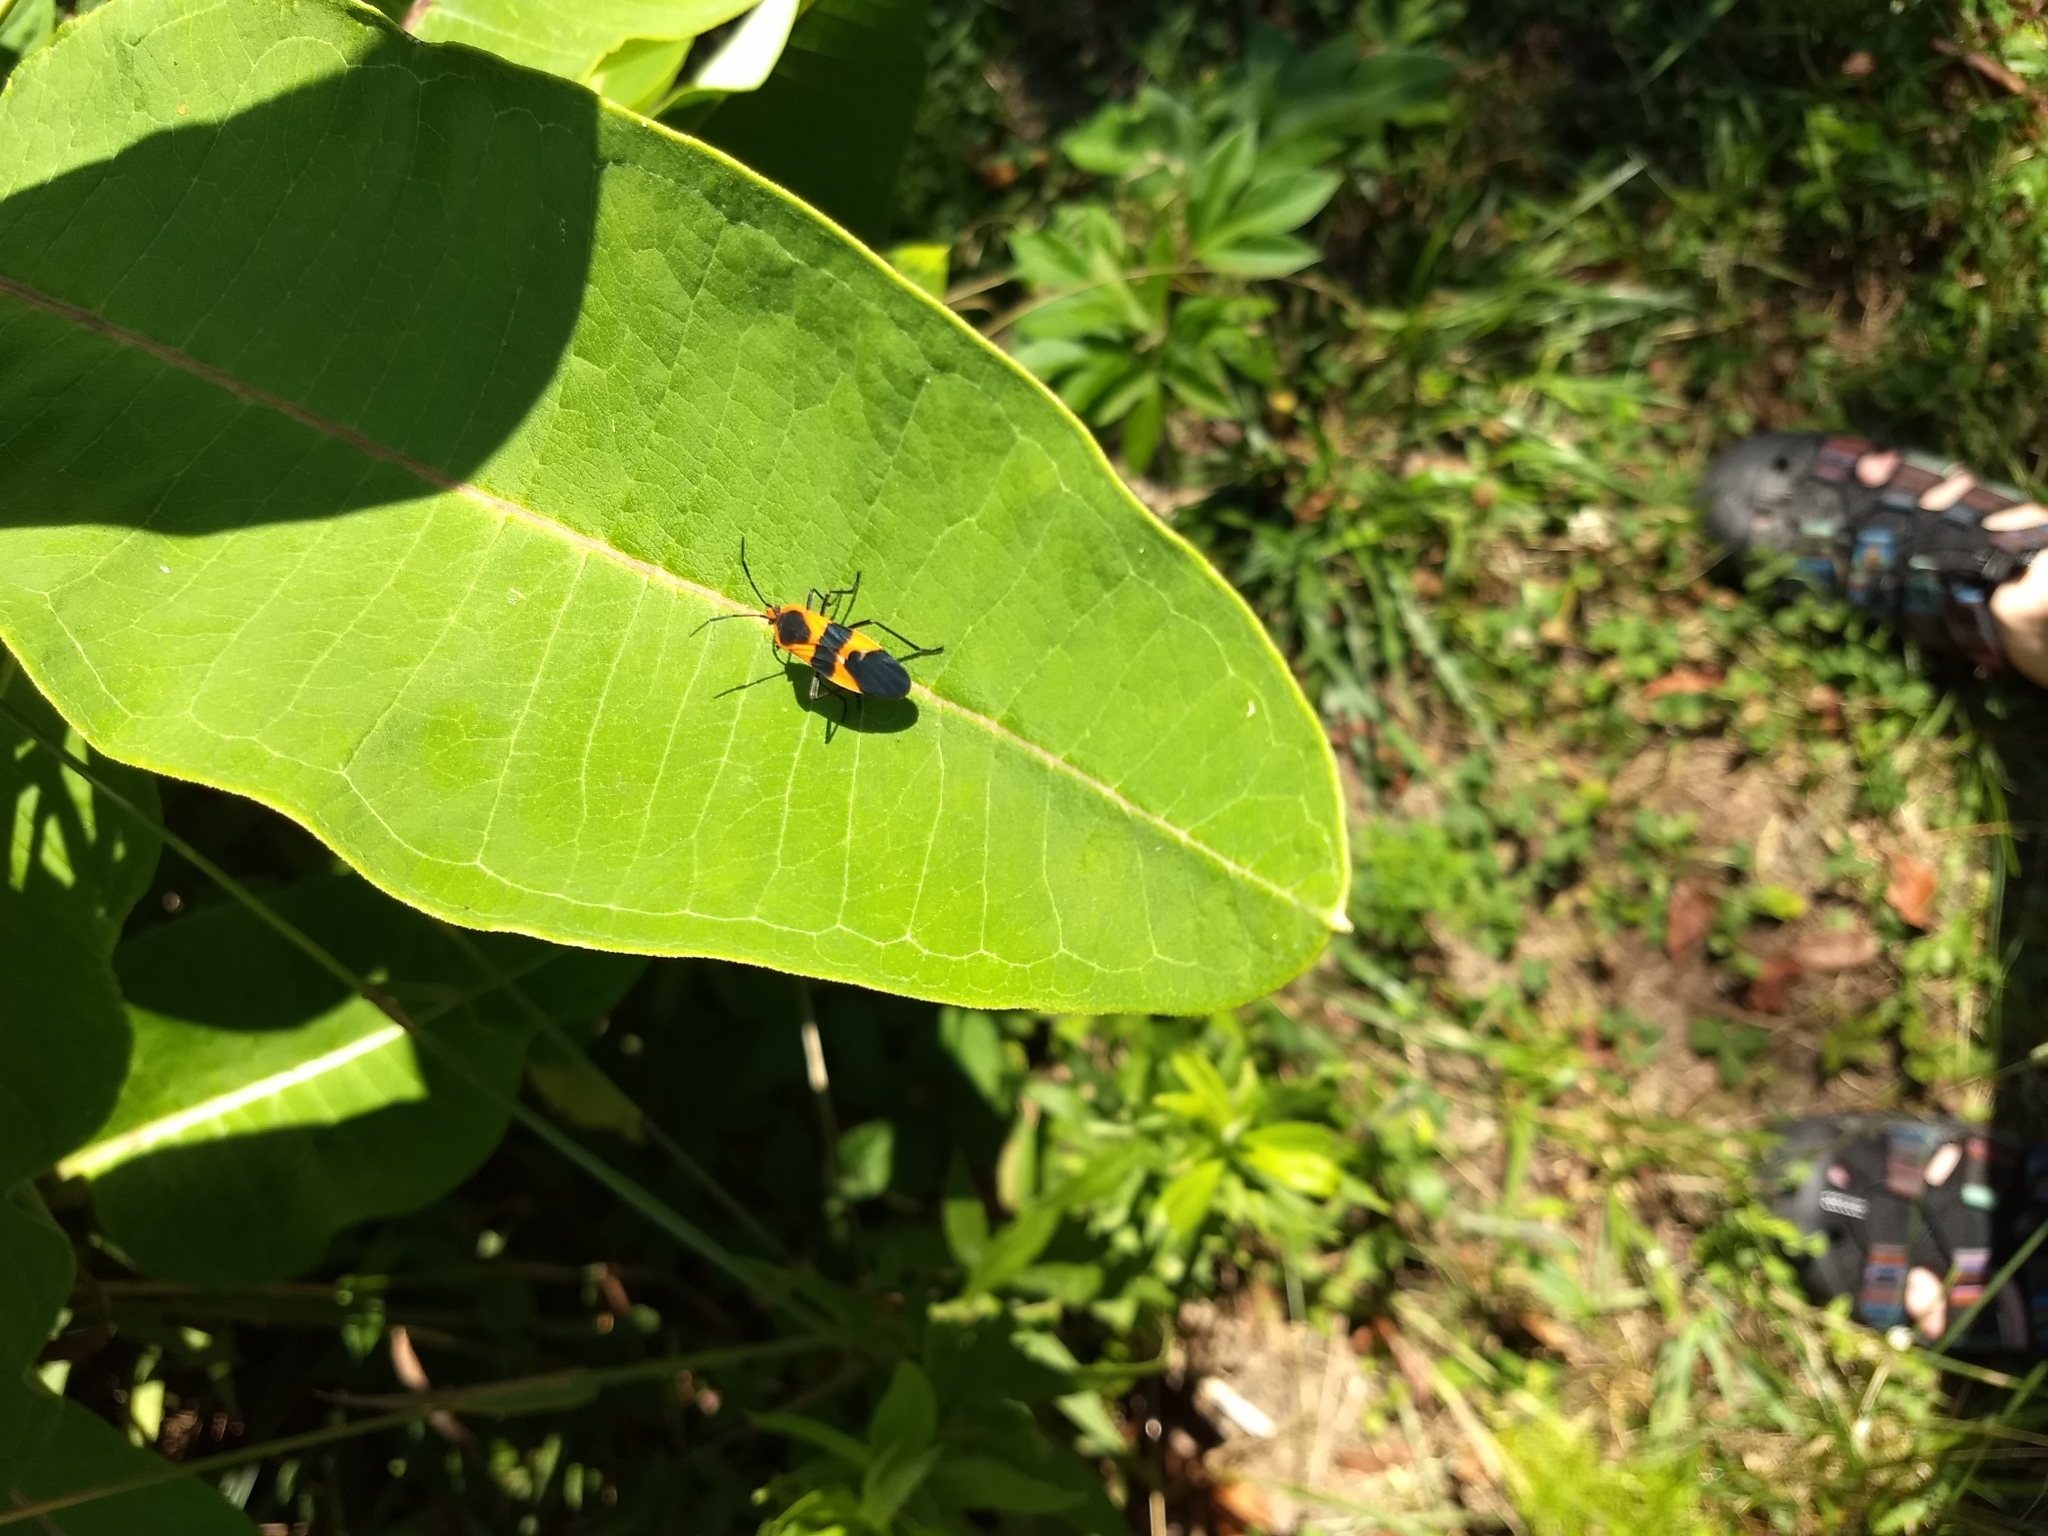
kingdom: Animalia
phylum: Arthropoda
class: Insecta
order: Hemiptera
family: Lygaeidae
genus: Oncopeltus
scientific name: Oncopeltus fasciatus
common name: Large milkweed bug
